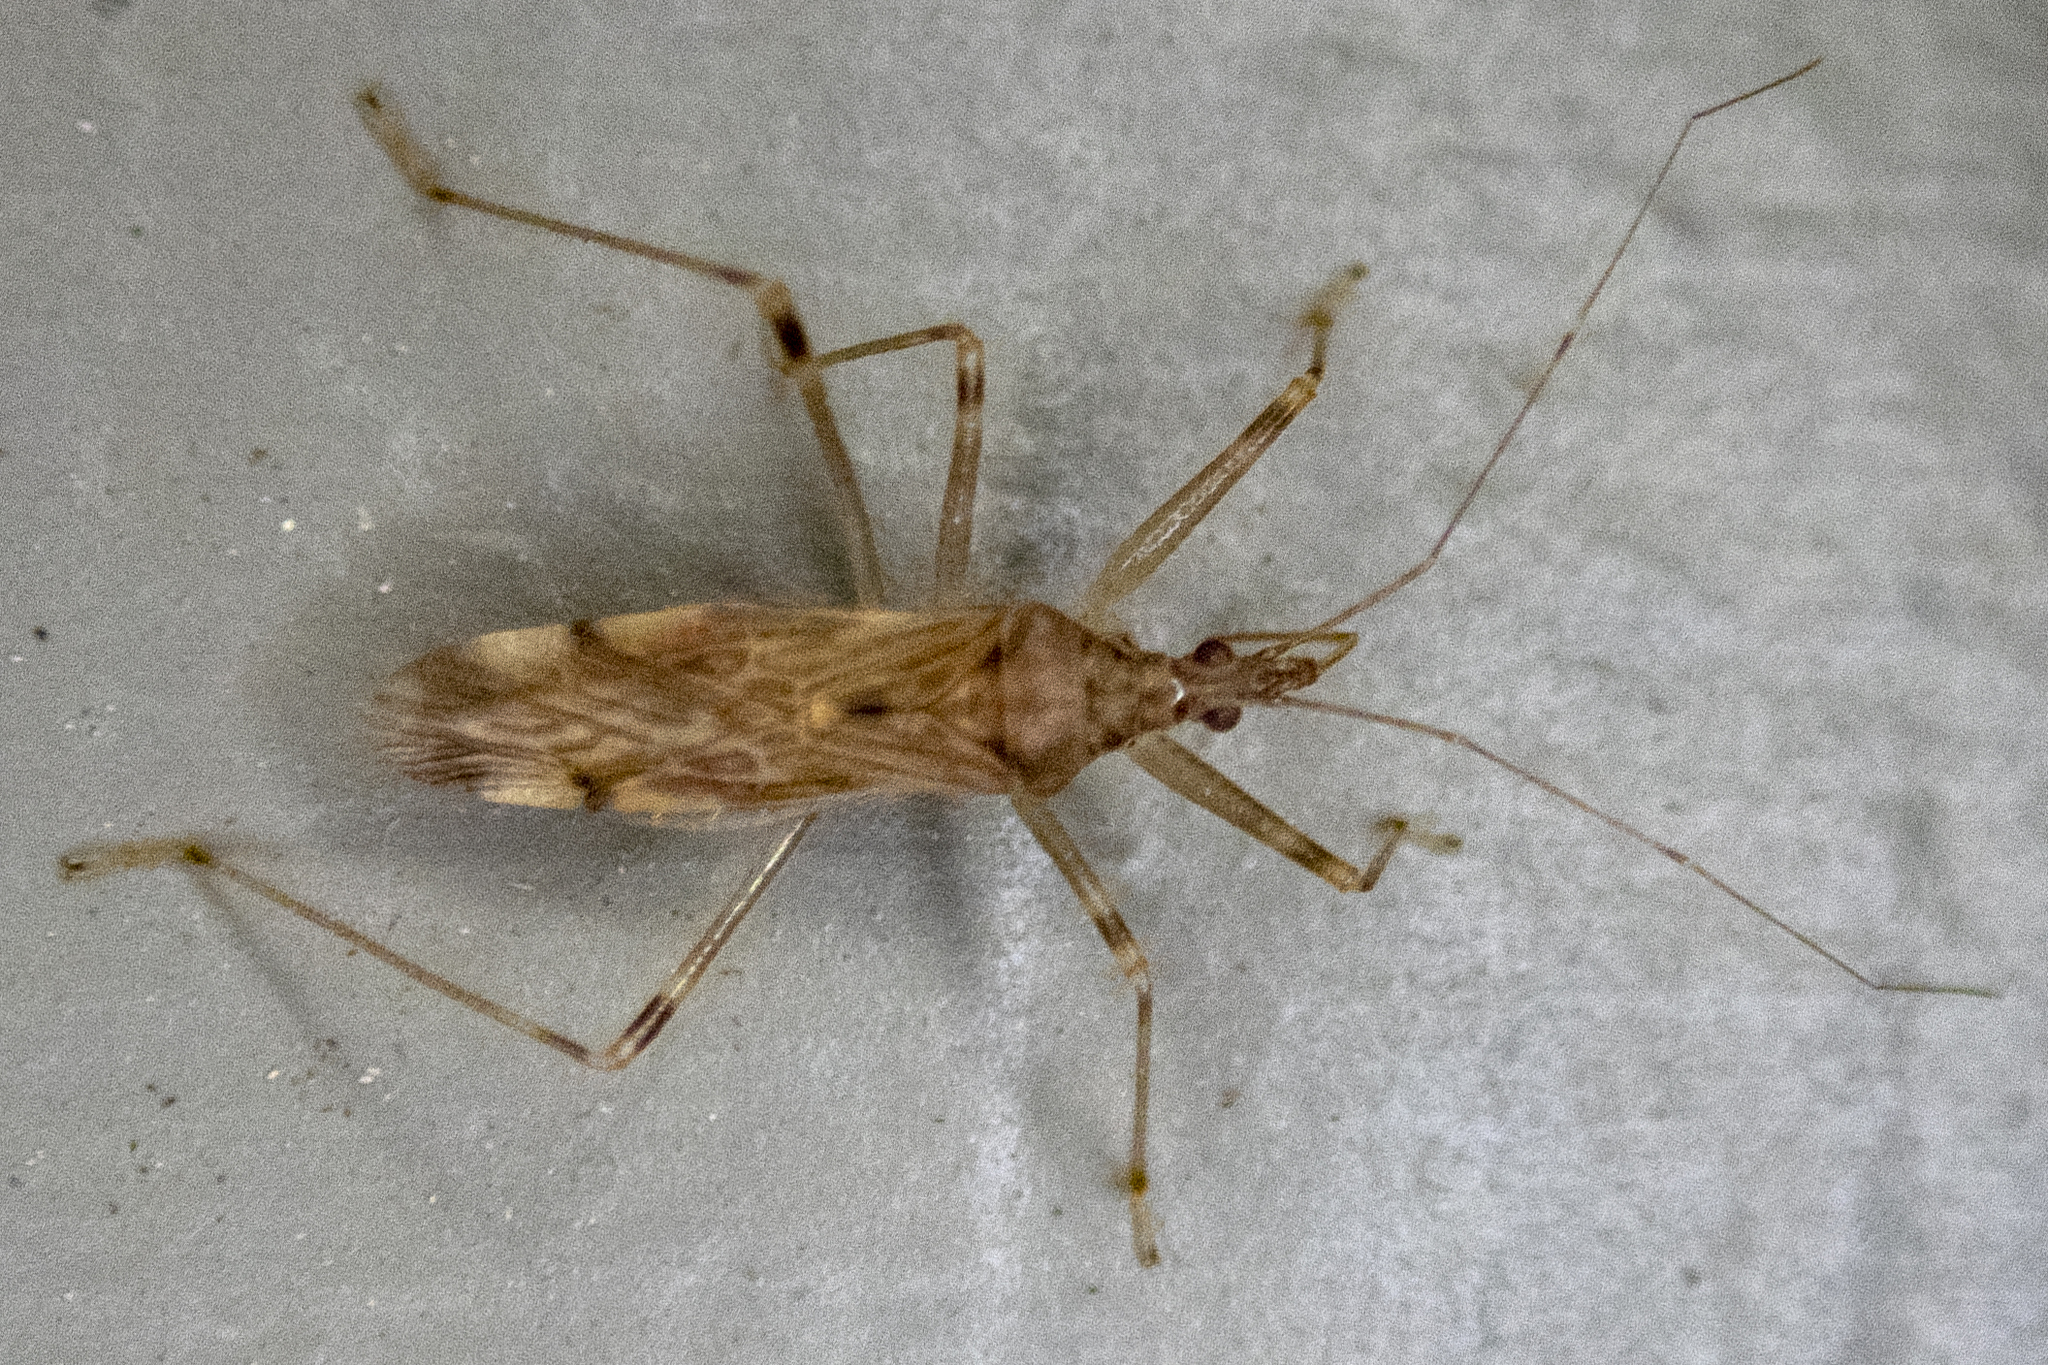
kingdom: Animalia
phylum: Arthropoda
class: Insecta
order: Hemiptera
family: Nabidae
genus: Lasiomerus
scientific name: Lasiomerus annulatus
